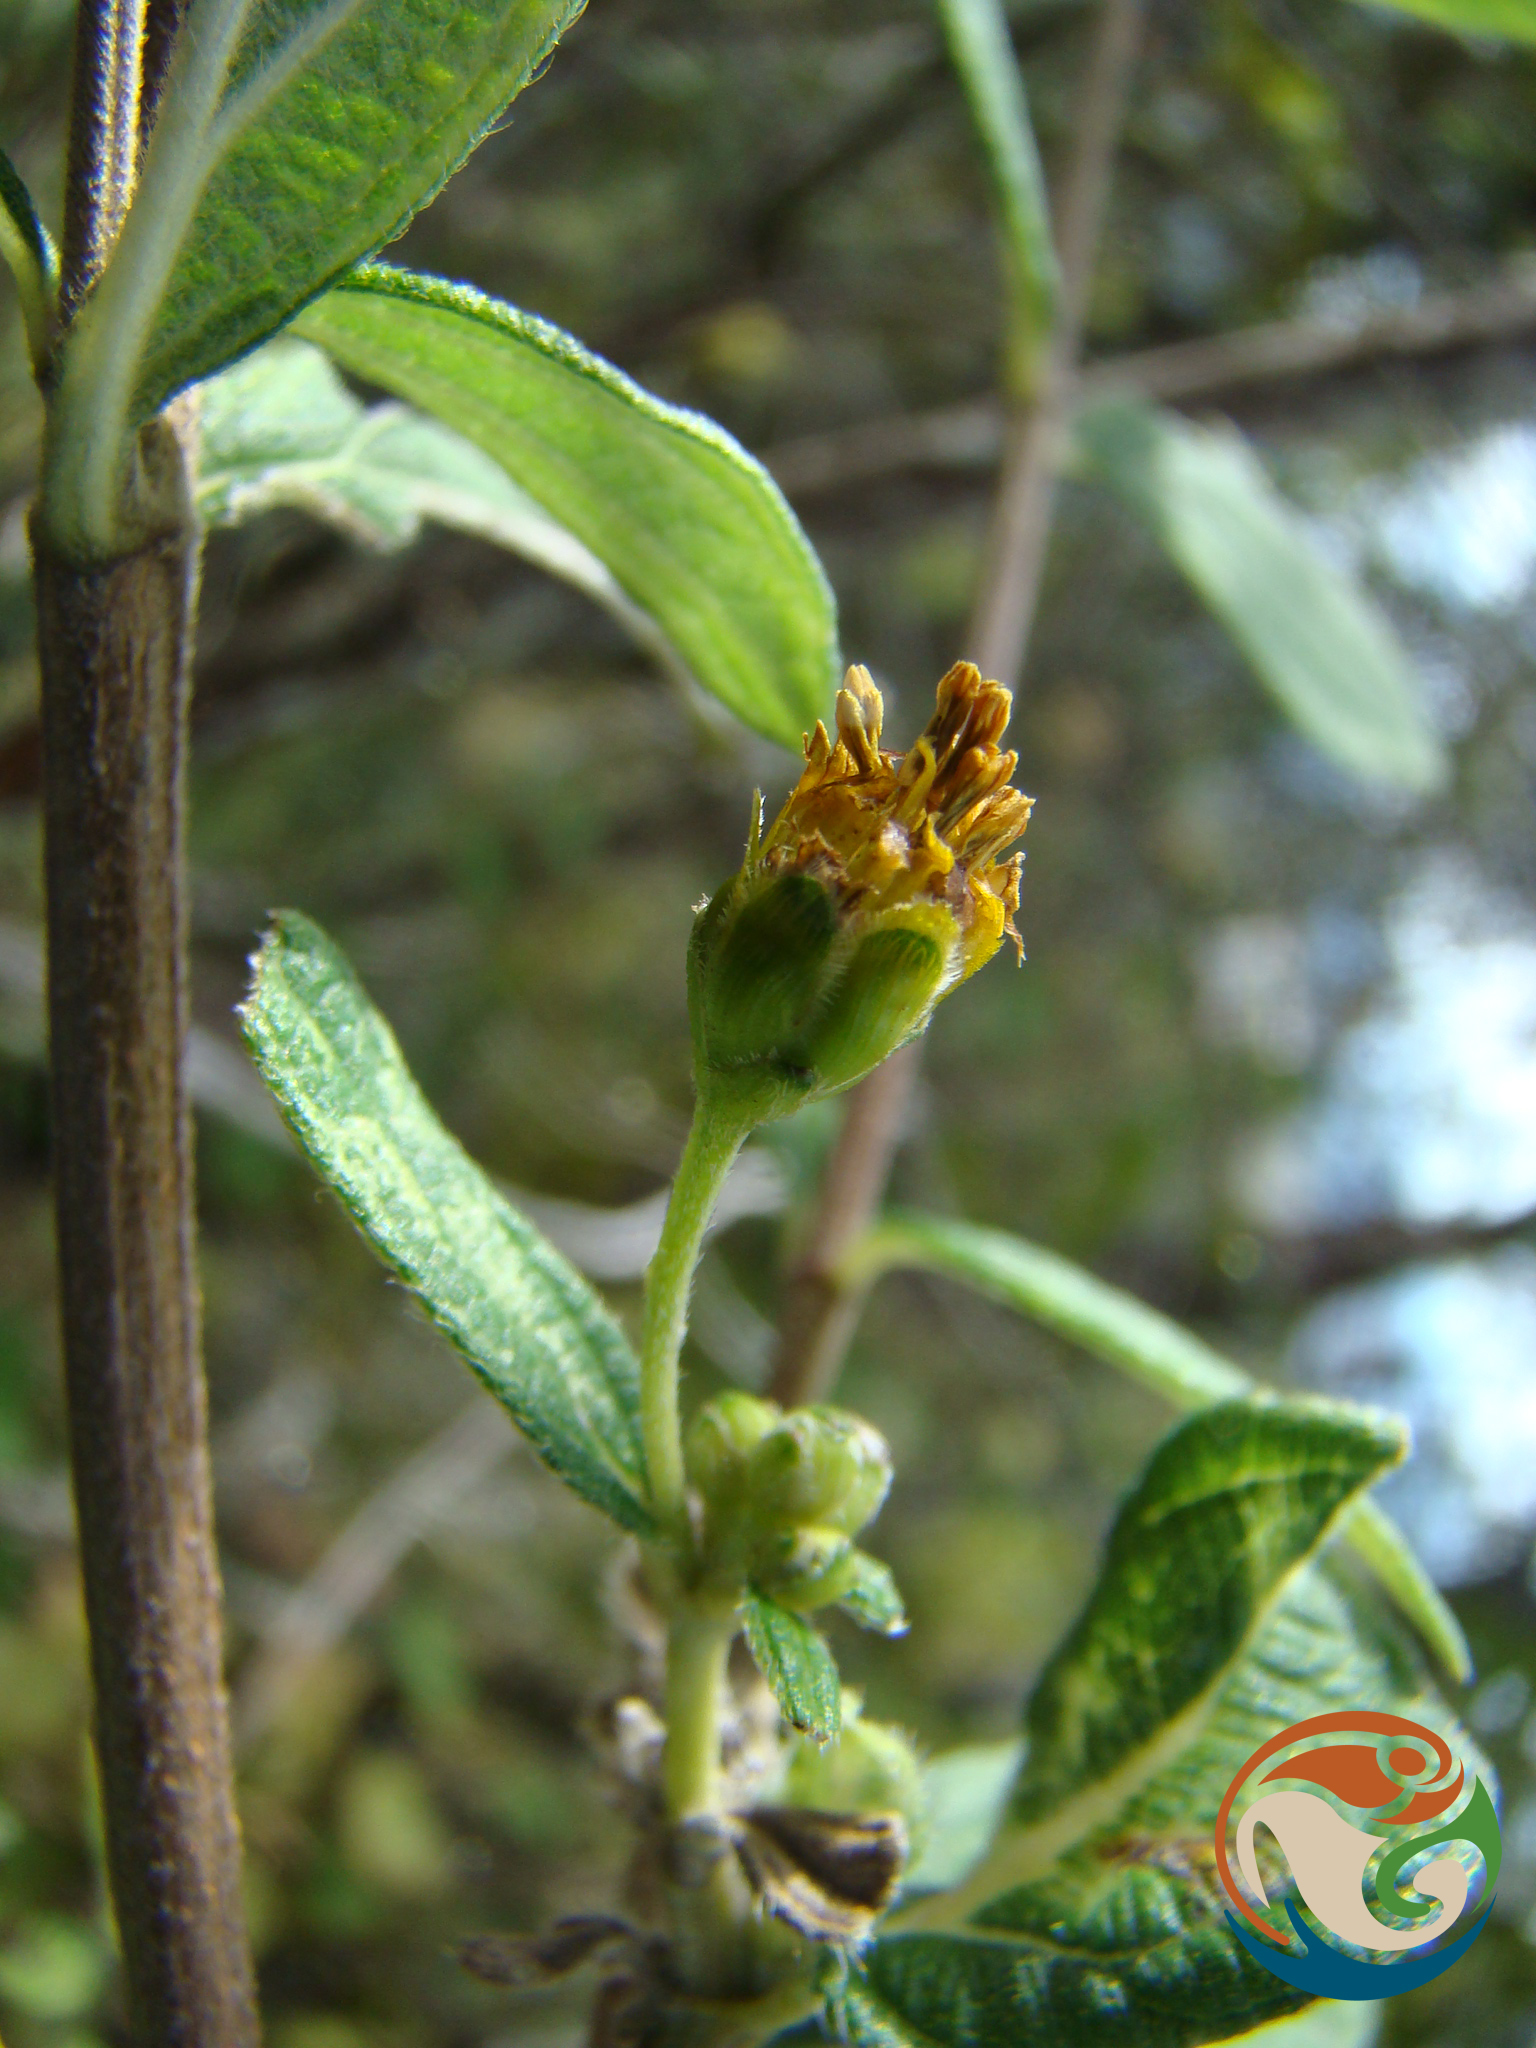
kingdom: Plantae
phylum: Tracheophyta
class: Magnoliopsida
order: Asterales
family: Asteraceae
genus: Perymenium
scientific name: Perymenium discolor
